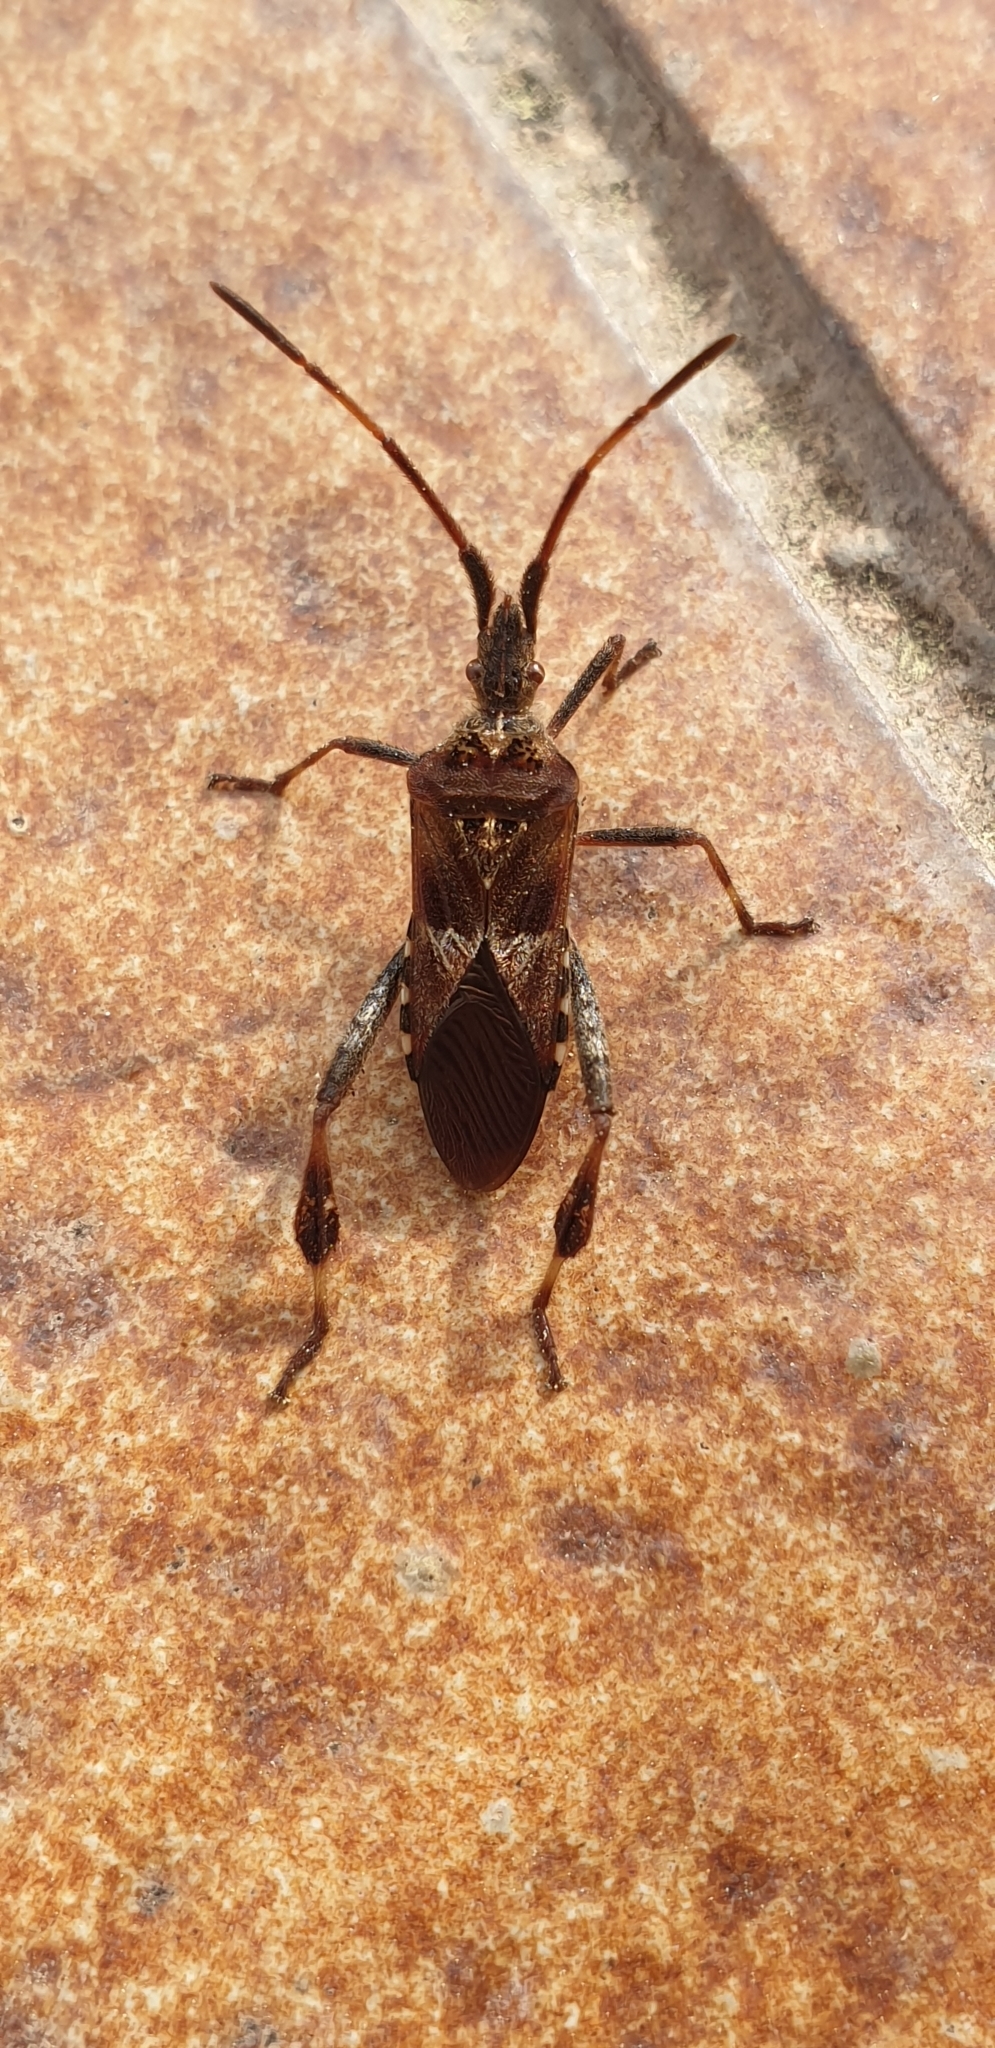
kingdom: Animalia
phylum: Arthropoda
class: Insecta
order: Hemiptera
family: Coreidae
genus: Leptoglossus
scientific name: Leptoglossus occidentalis
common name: Western conifer-seed bug
